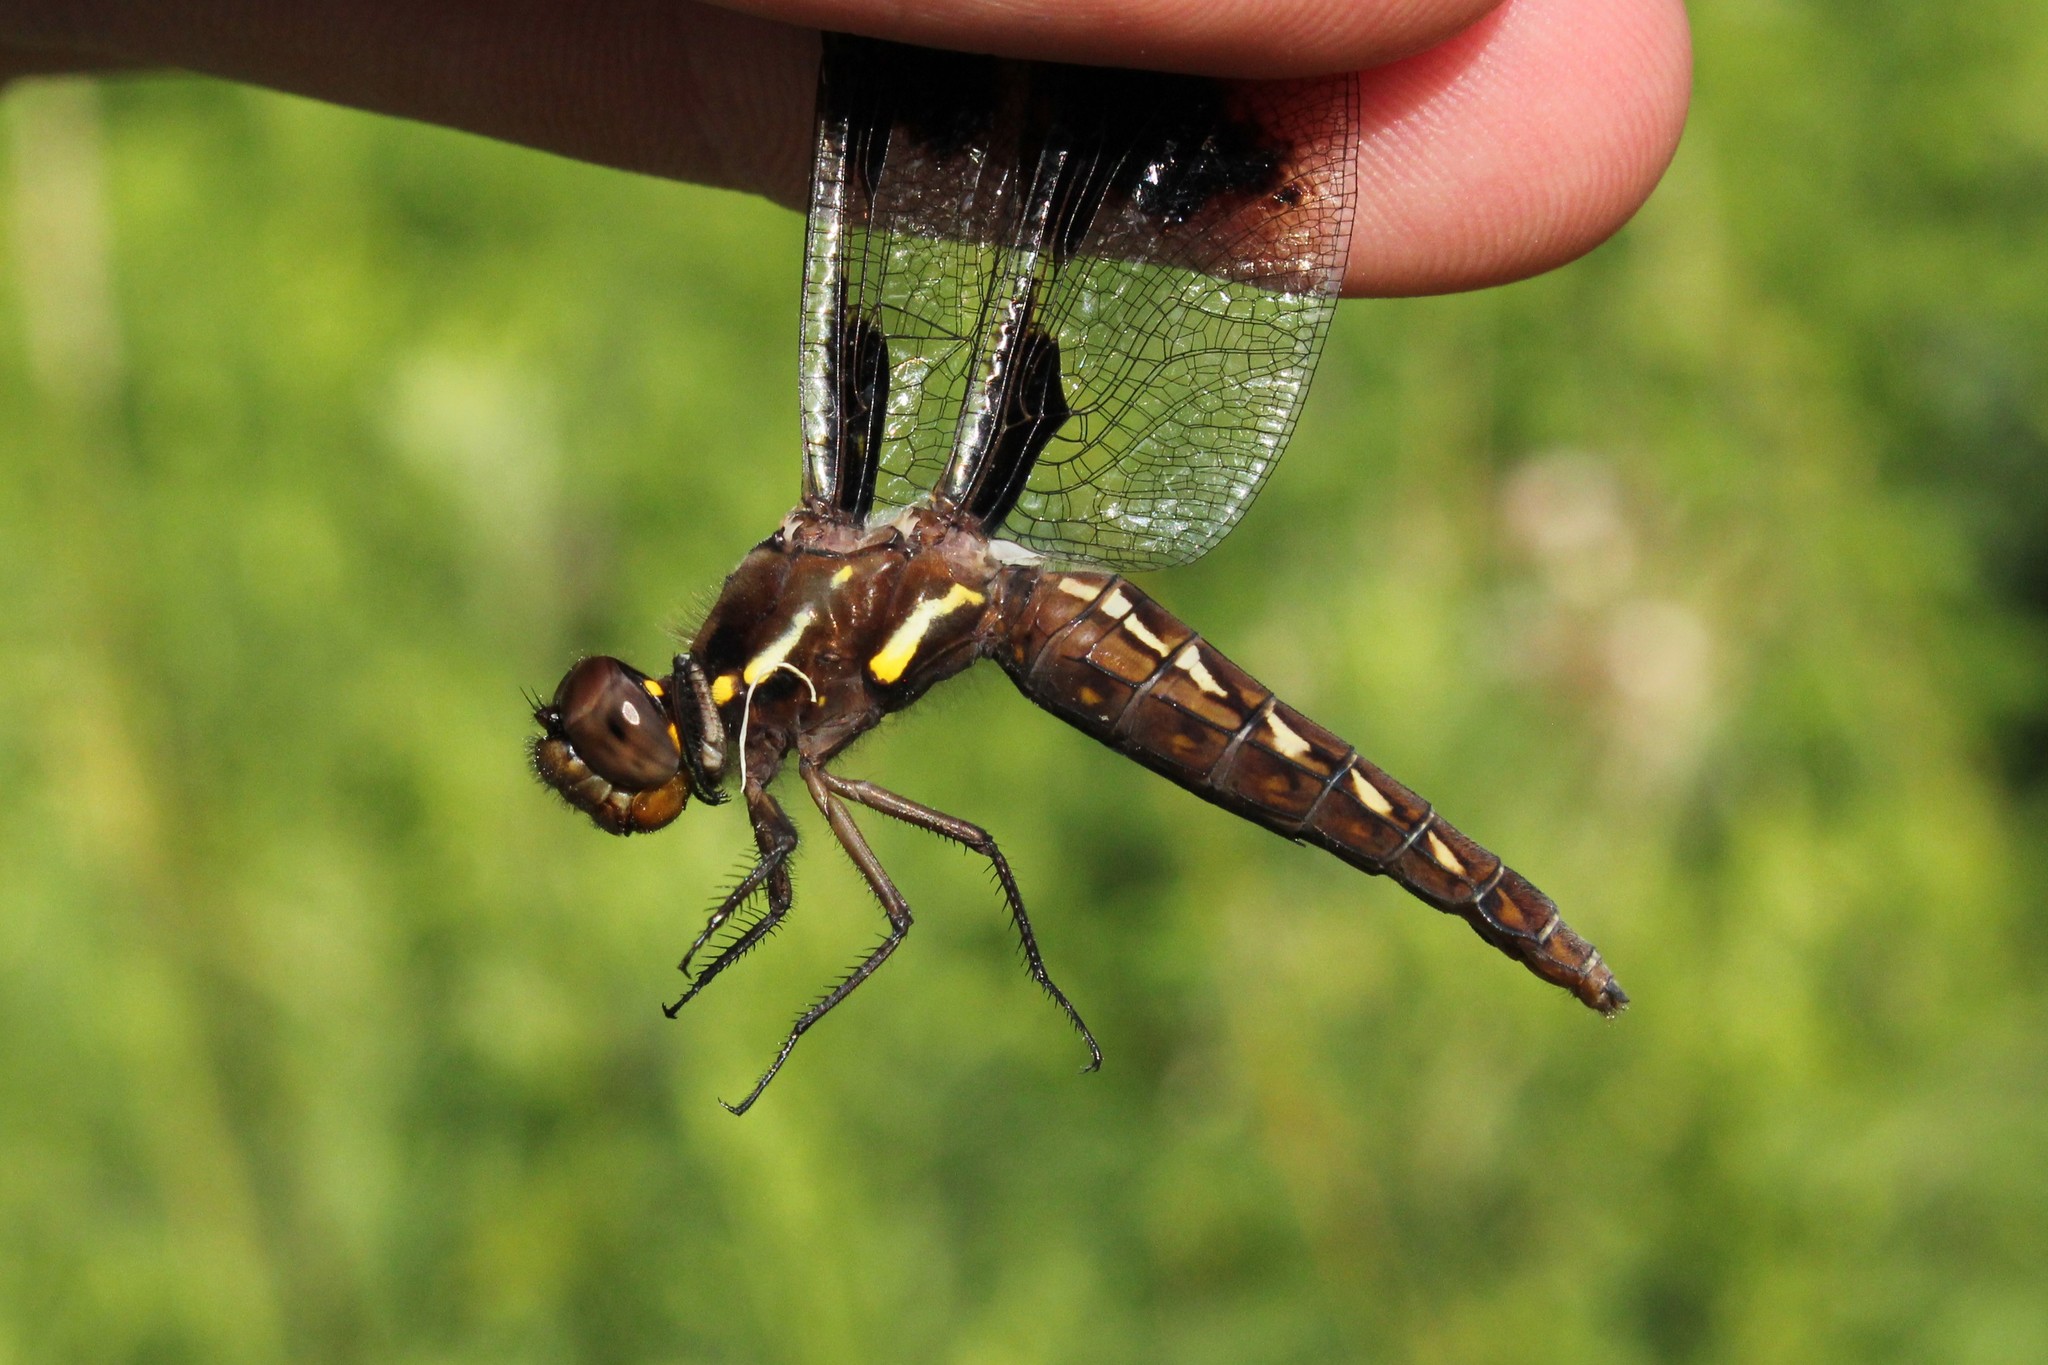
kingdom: Animalia
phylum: Arthropoda
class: Insecta
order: Odonata
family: Libellulidae
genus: Plathemis
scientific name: Plathemis lydia
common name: Common whitetail
